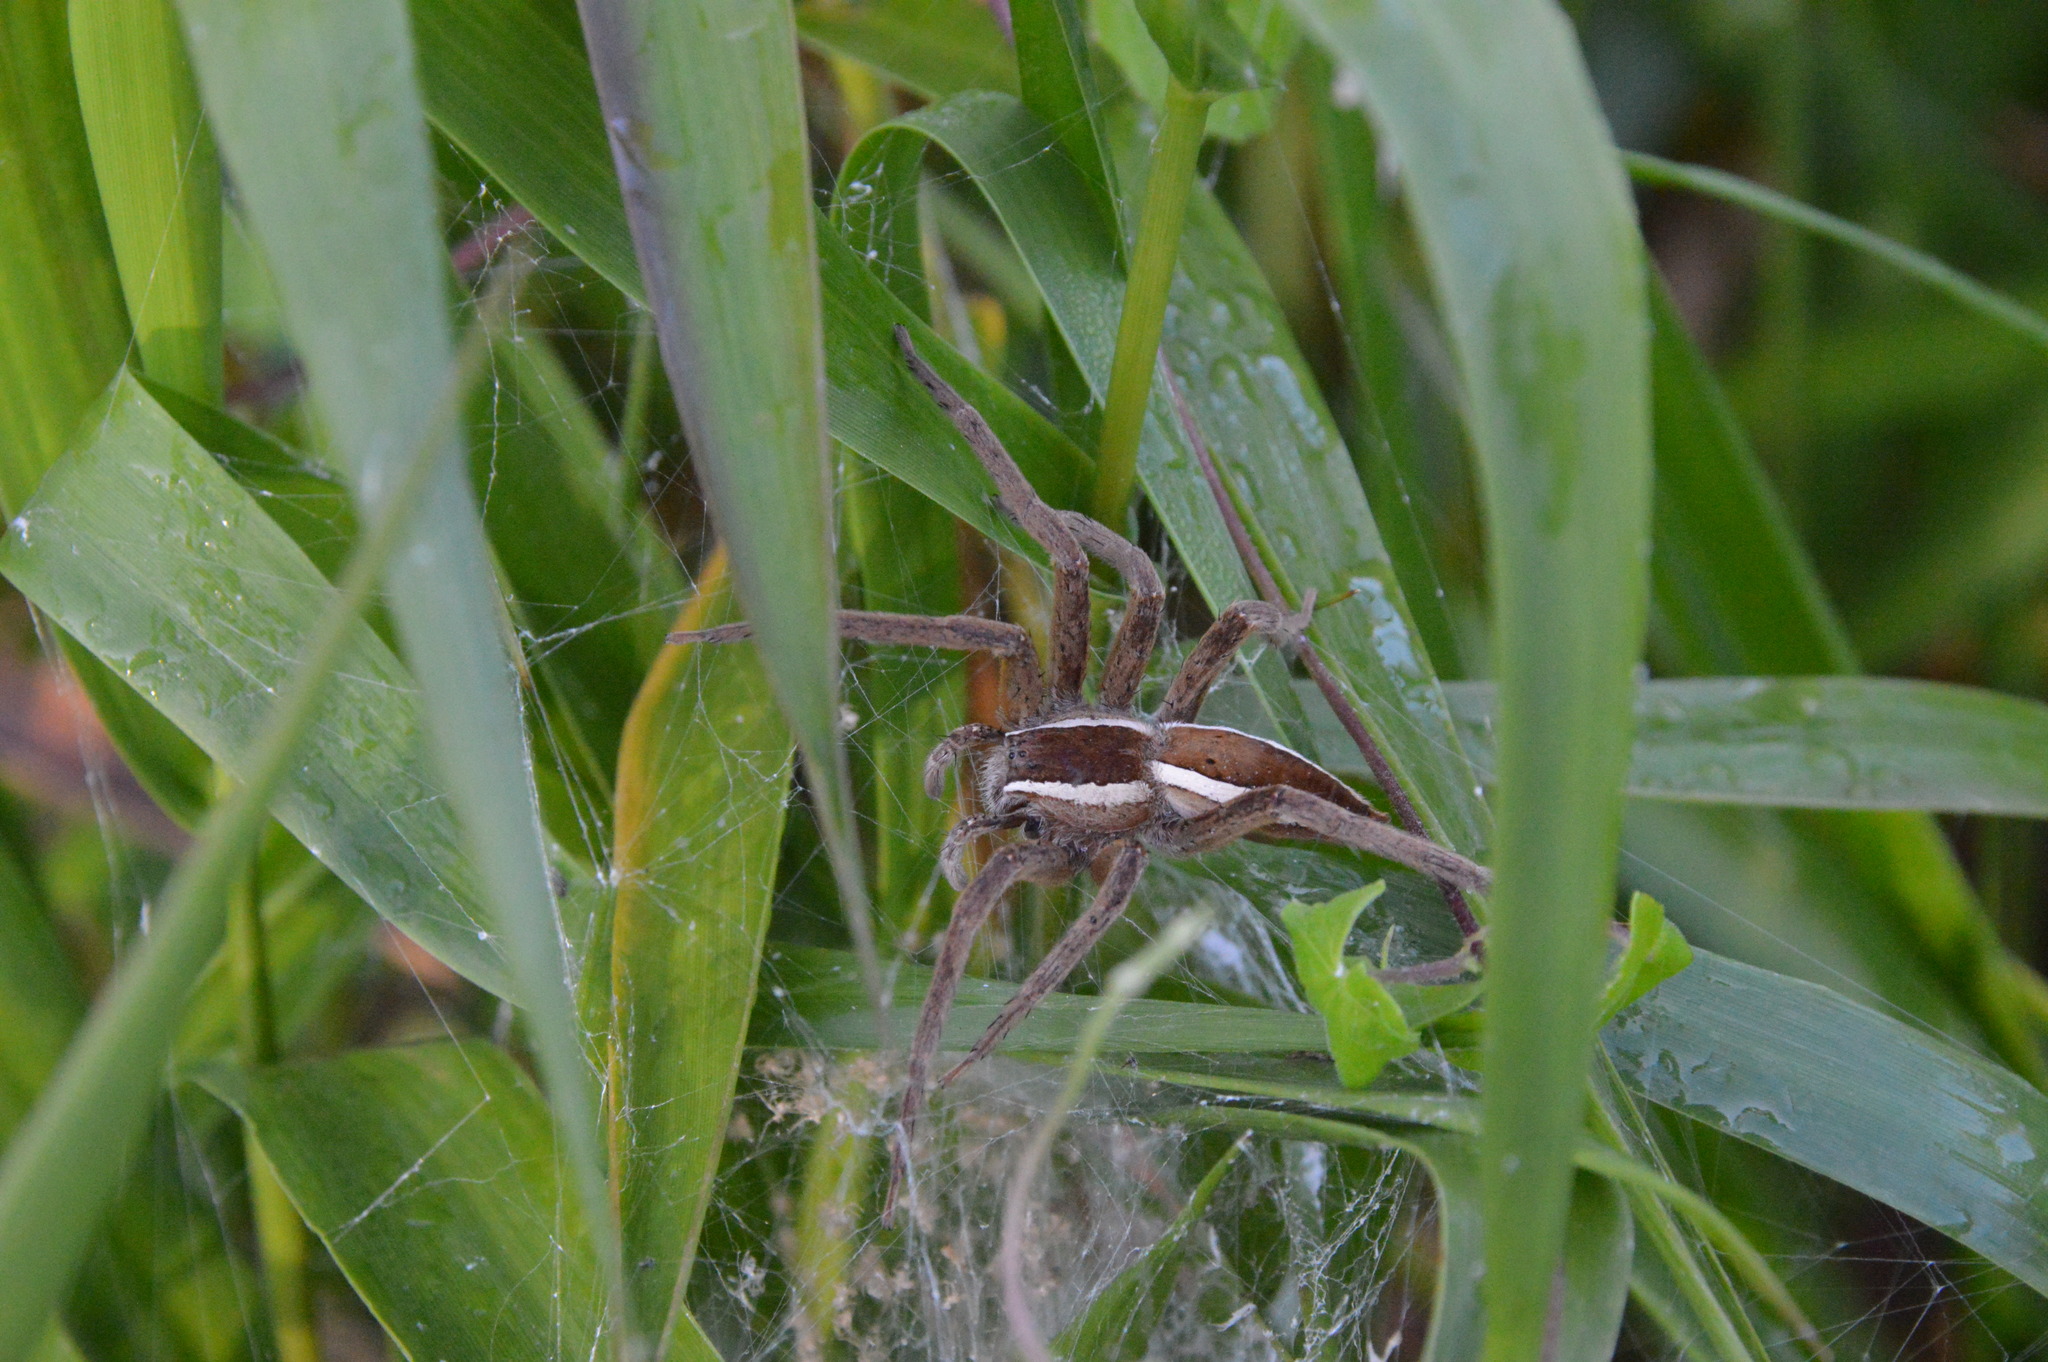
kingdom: Animalia
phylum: Arthropoda
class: Arachnida
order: Araneae
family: Pisauridae
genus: Pisaurina
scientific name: Pisaurina brevipes
